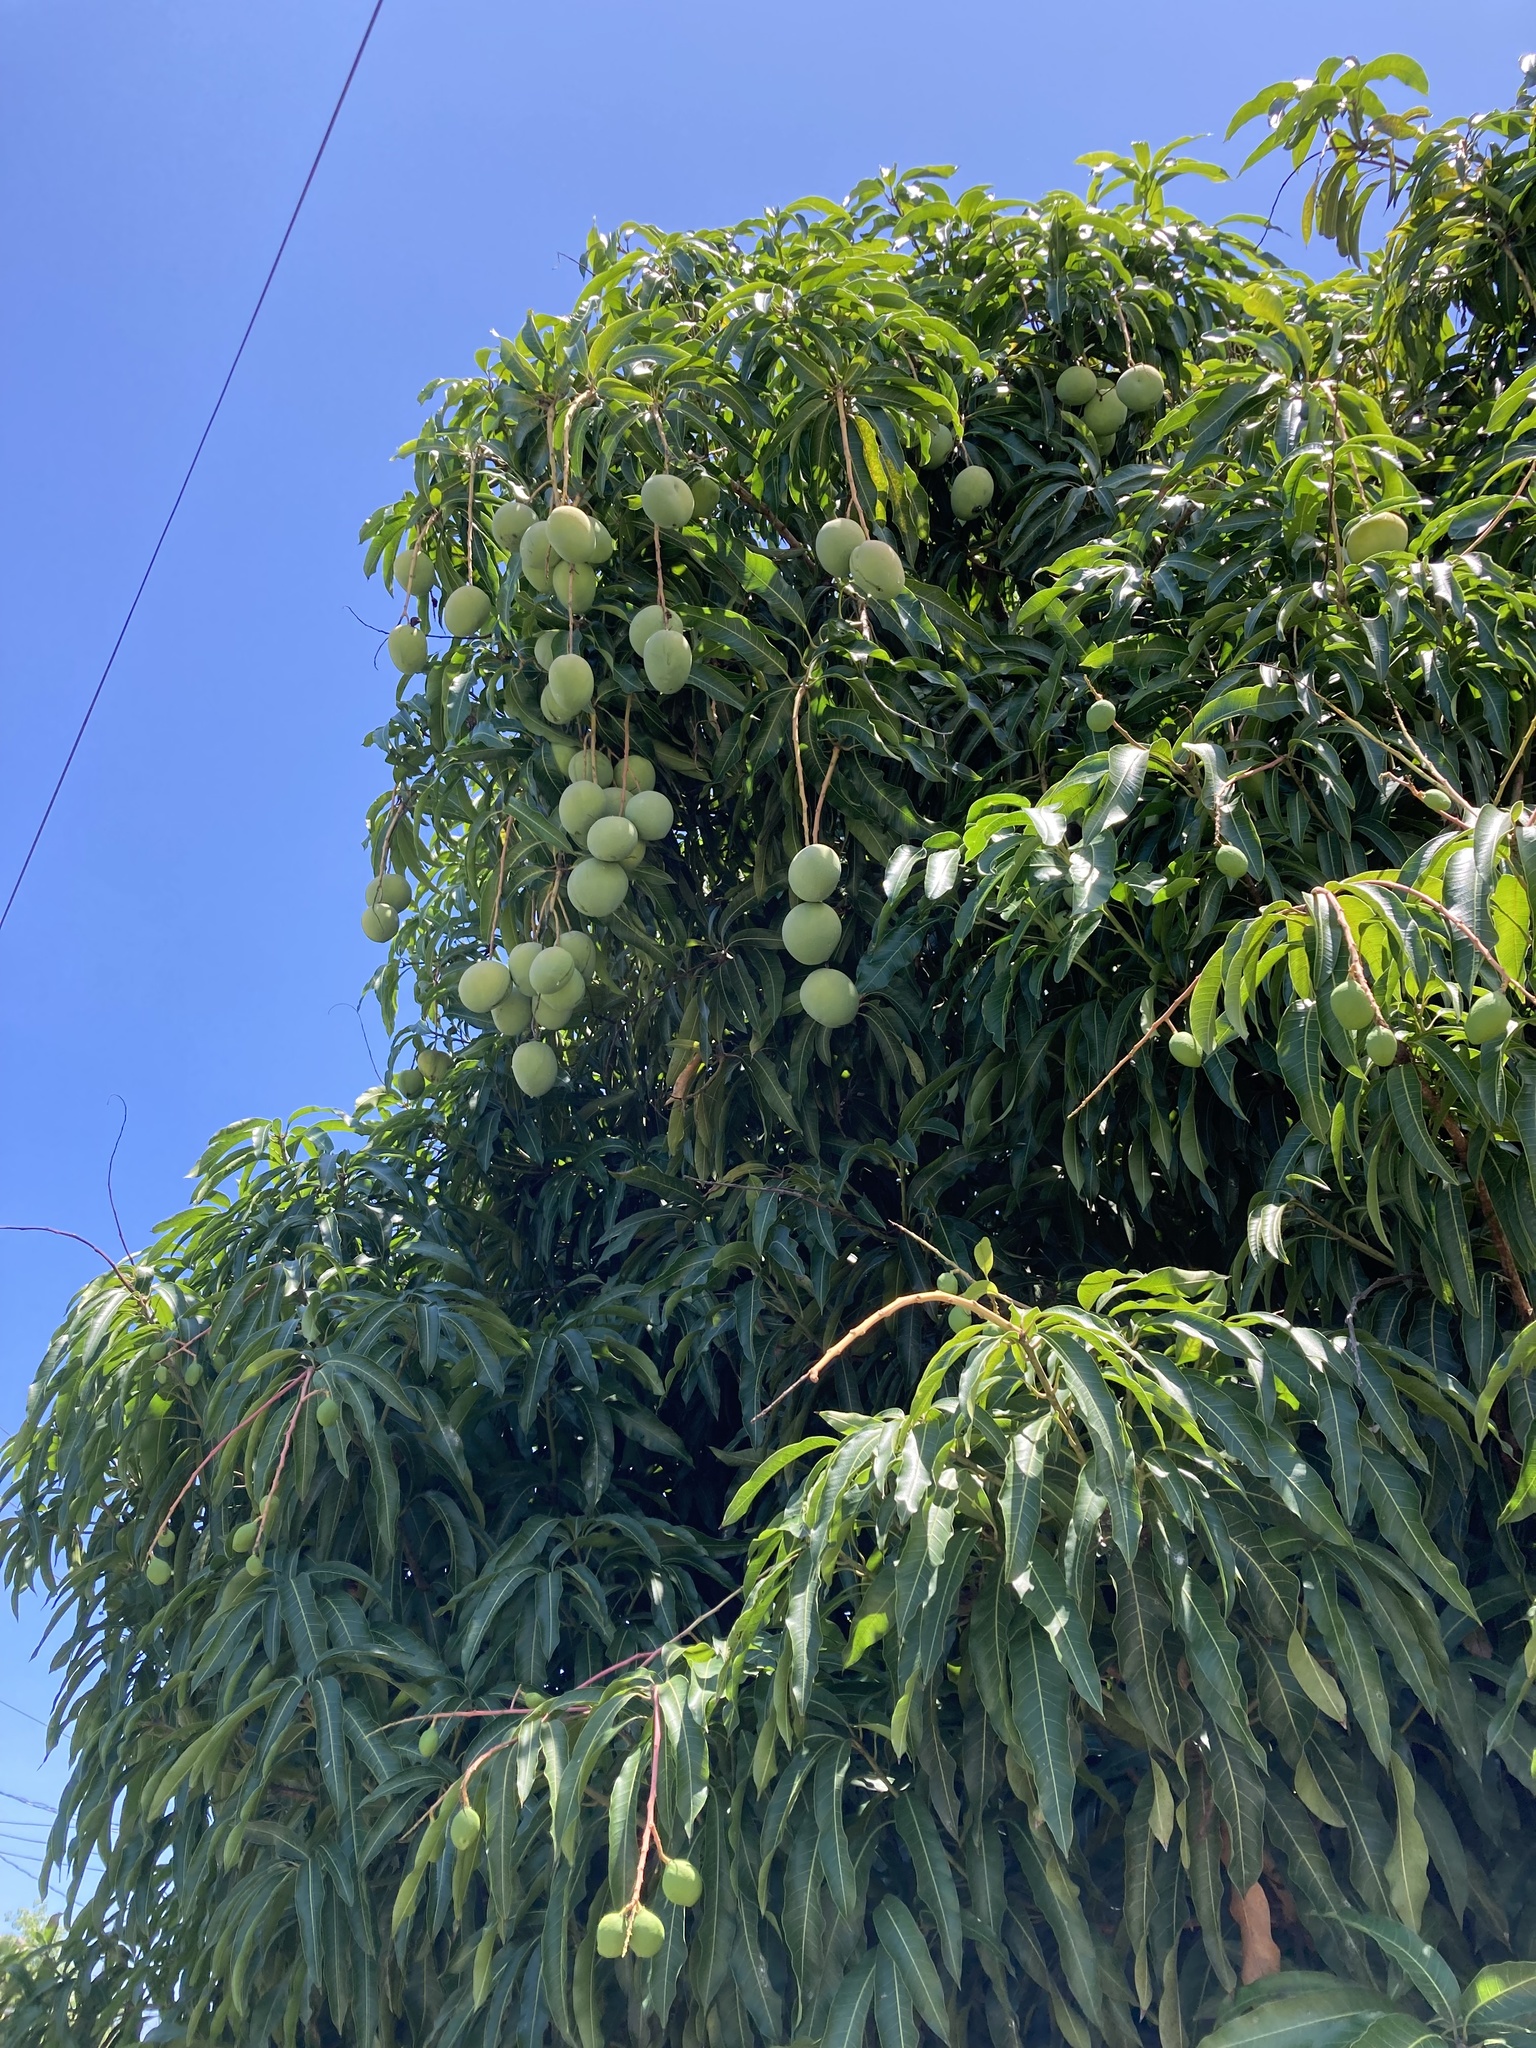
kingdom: Plantae
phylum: Tracheophyta
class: Magnoliopsida
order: Sapindales
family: Anacardiaceae
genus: Mangifera
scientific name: Mangifera indica
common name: Mango
